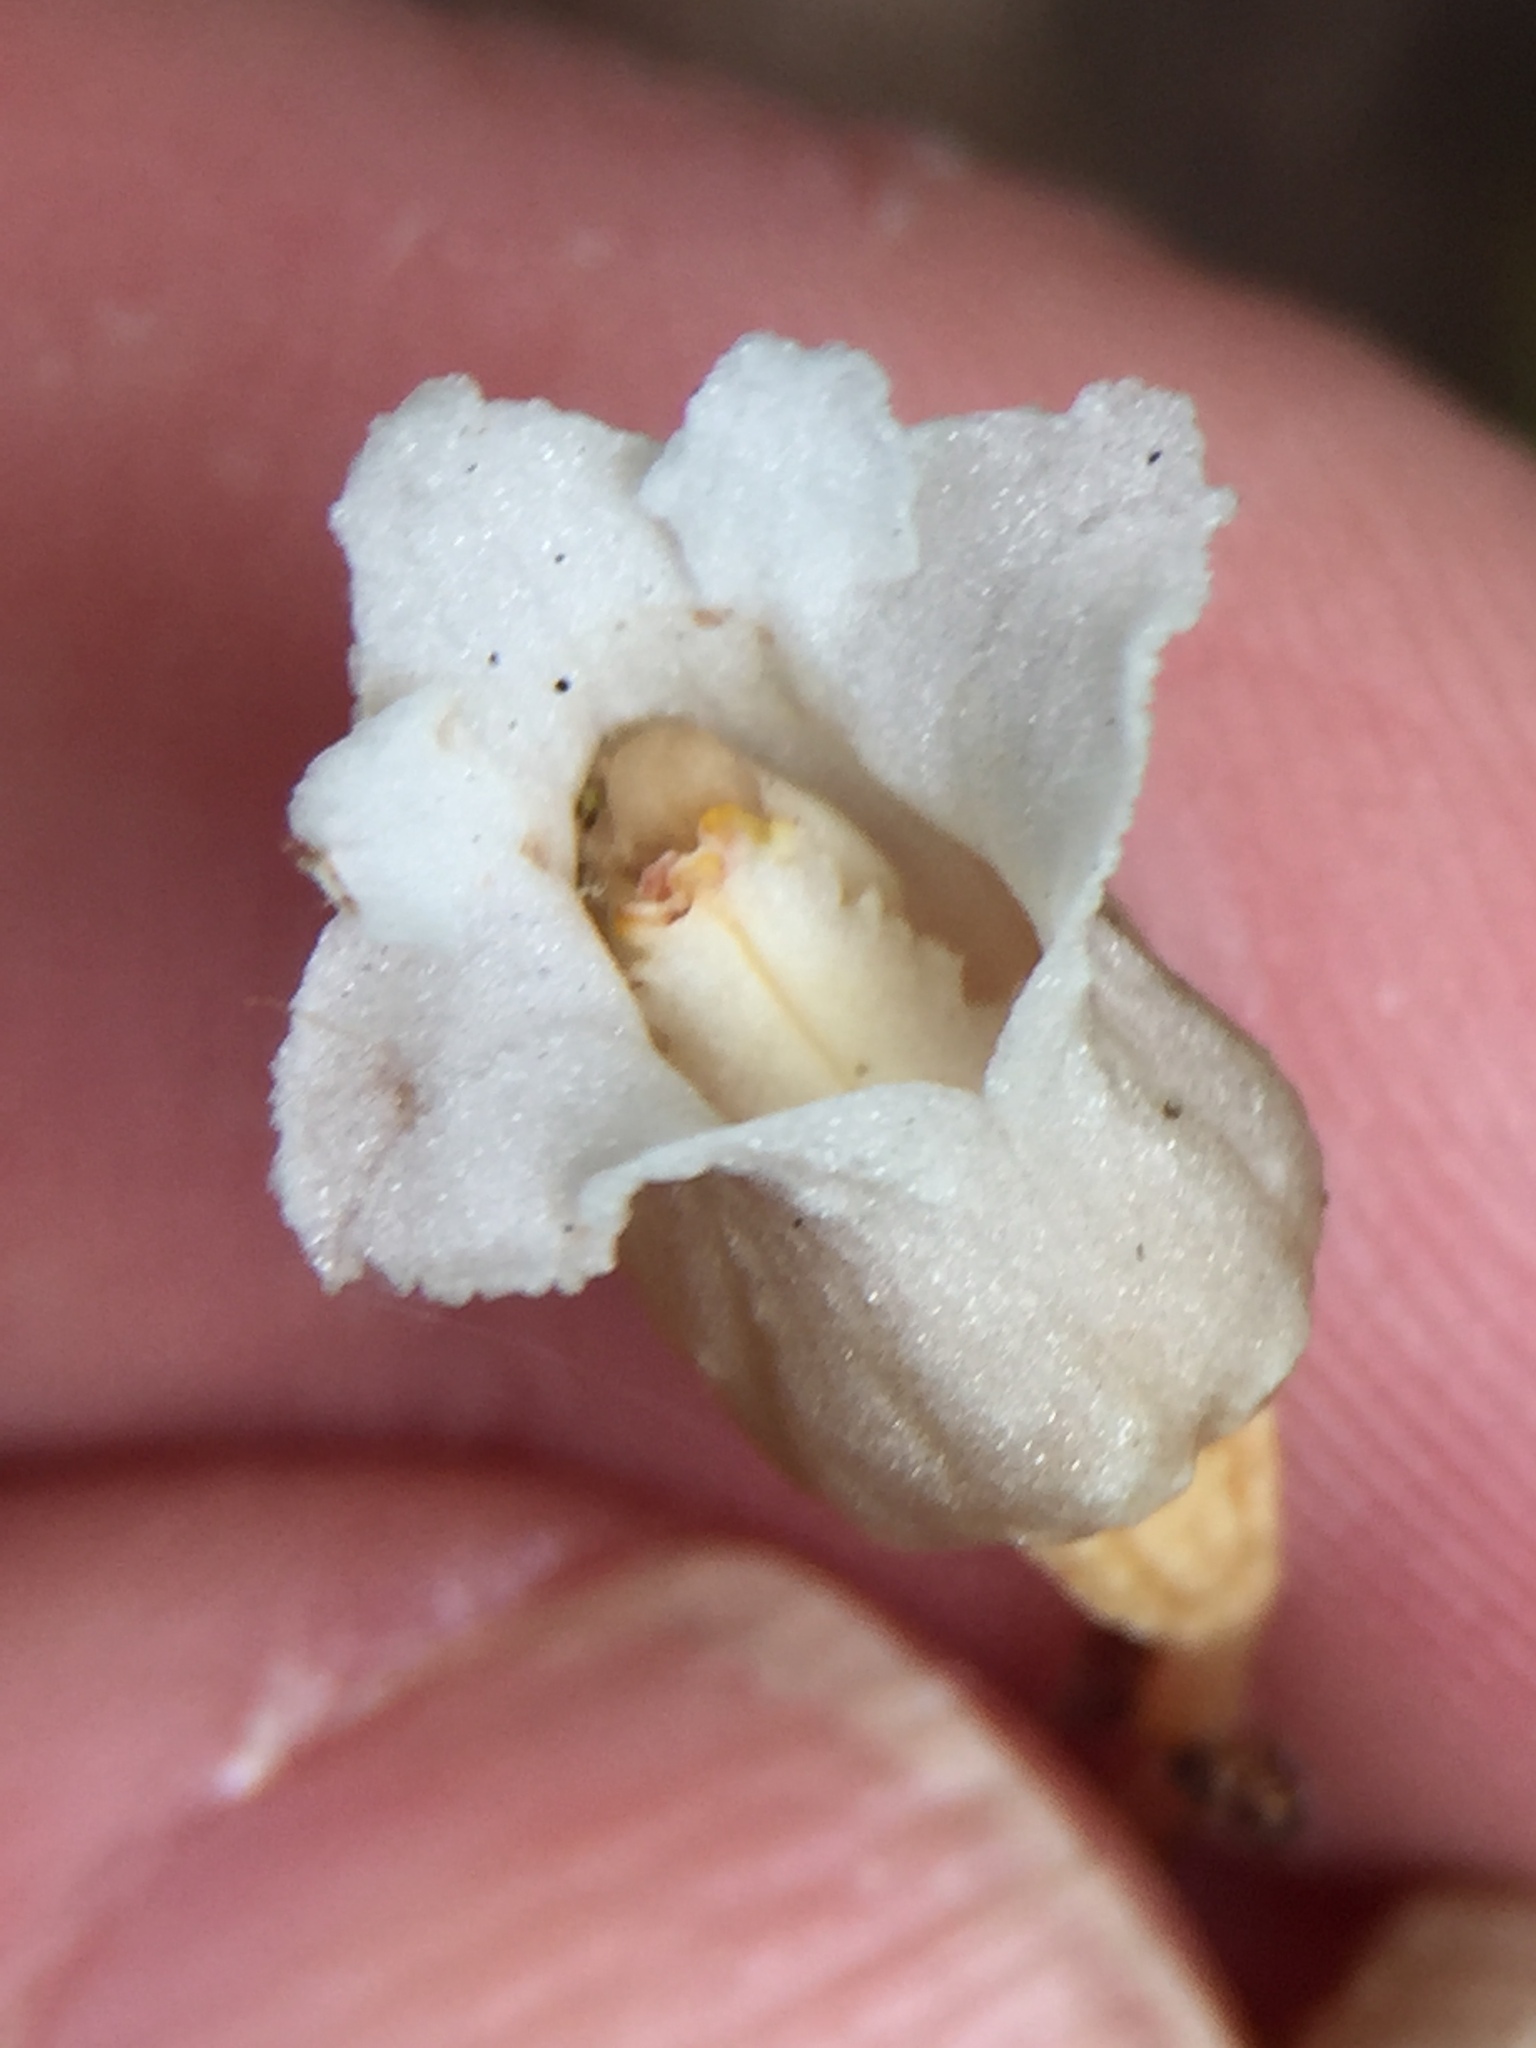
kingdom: Plantae
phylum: Tracheophyta
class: Liliopsida
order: Asparagales
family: Orchidaceae
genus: Gastrodia
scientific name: Gastrodia sesamoides
